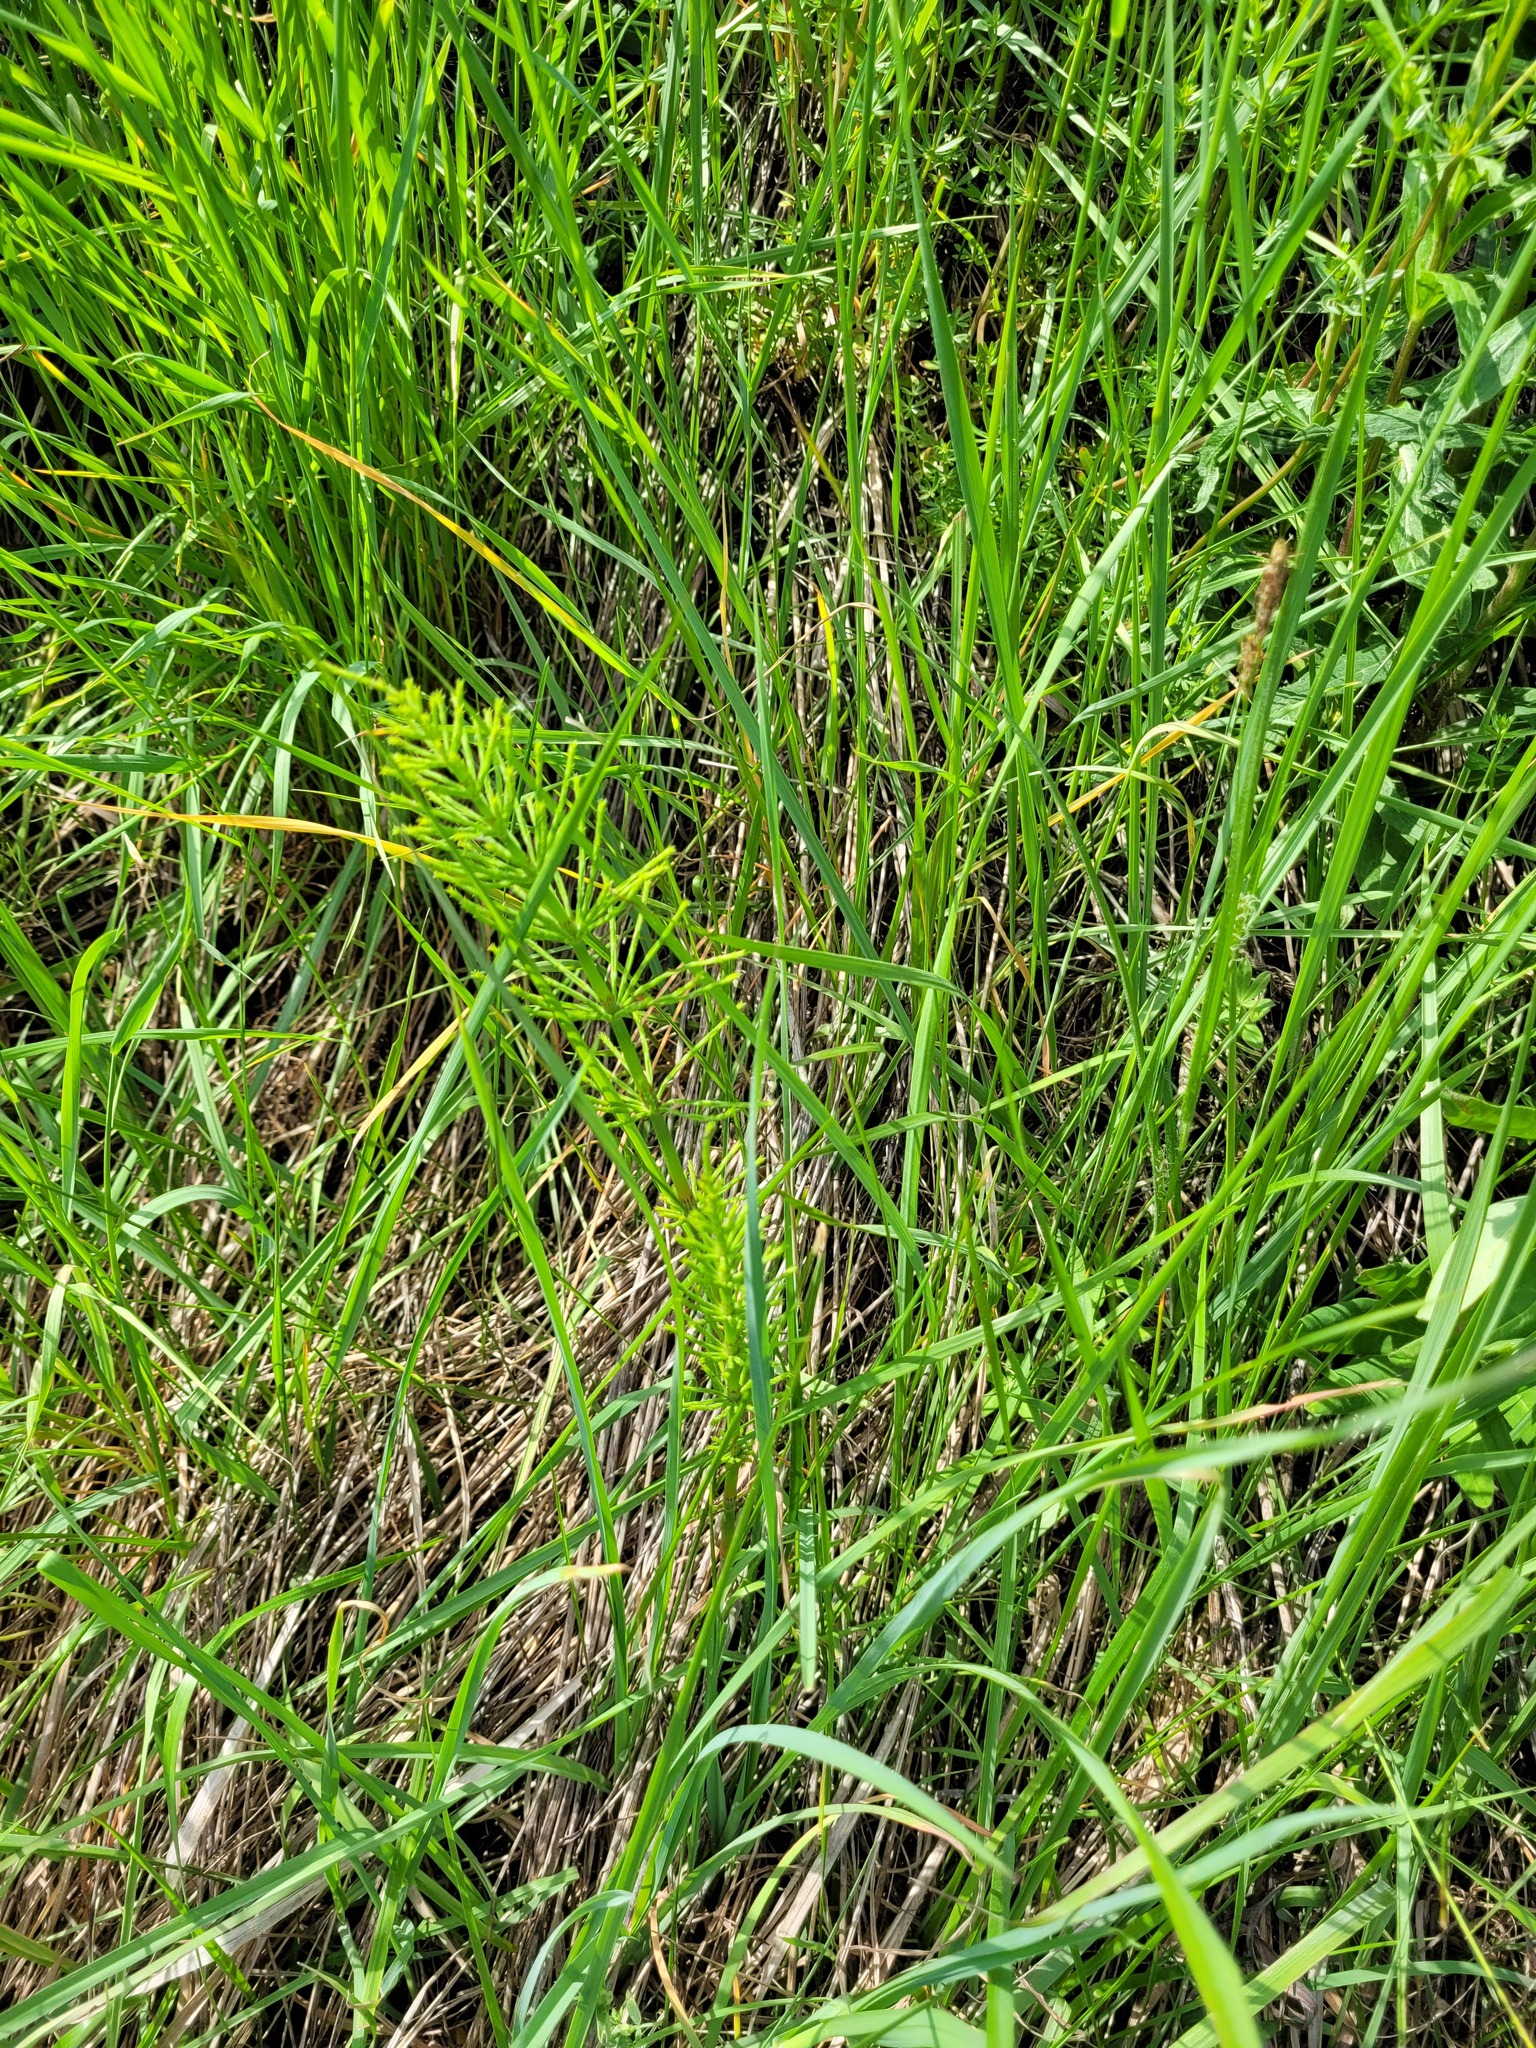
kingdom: Plantae
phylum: Tracheophyta
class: Polypodiopsida
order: Equisetales
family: Equisetaceae
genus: Equisetum
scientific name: Equisetum arvense
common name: Field horsetail
